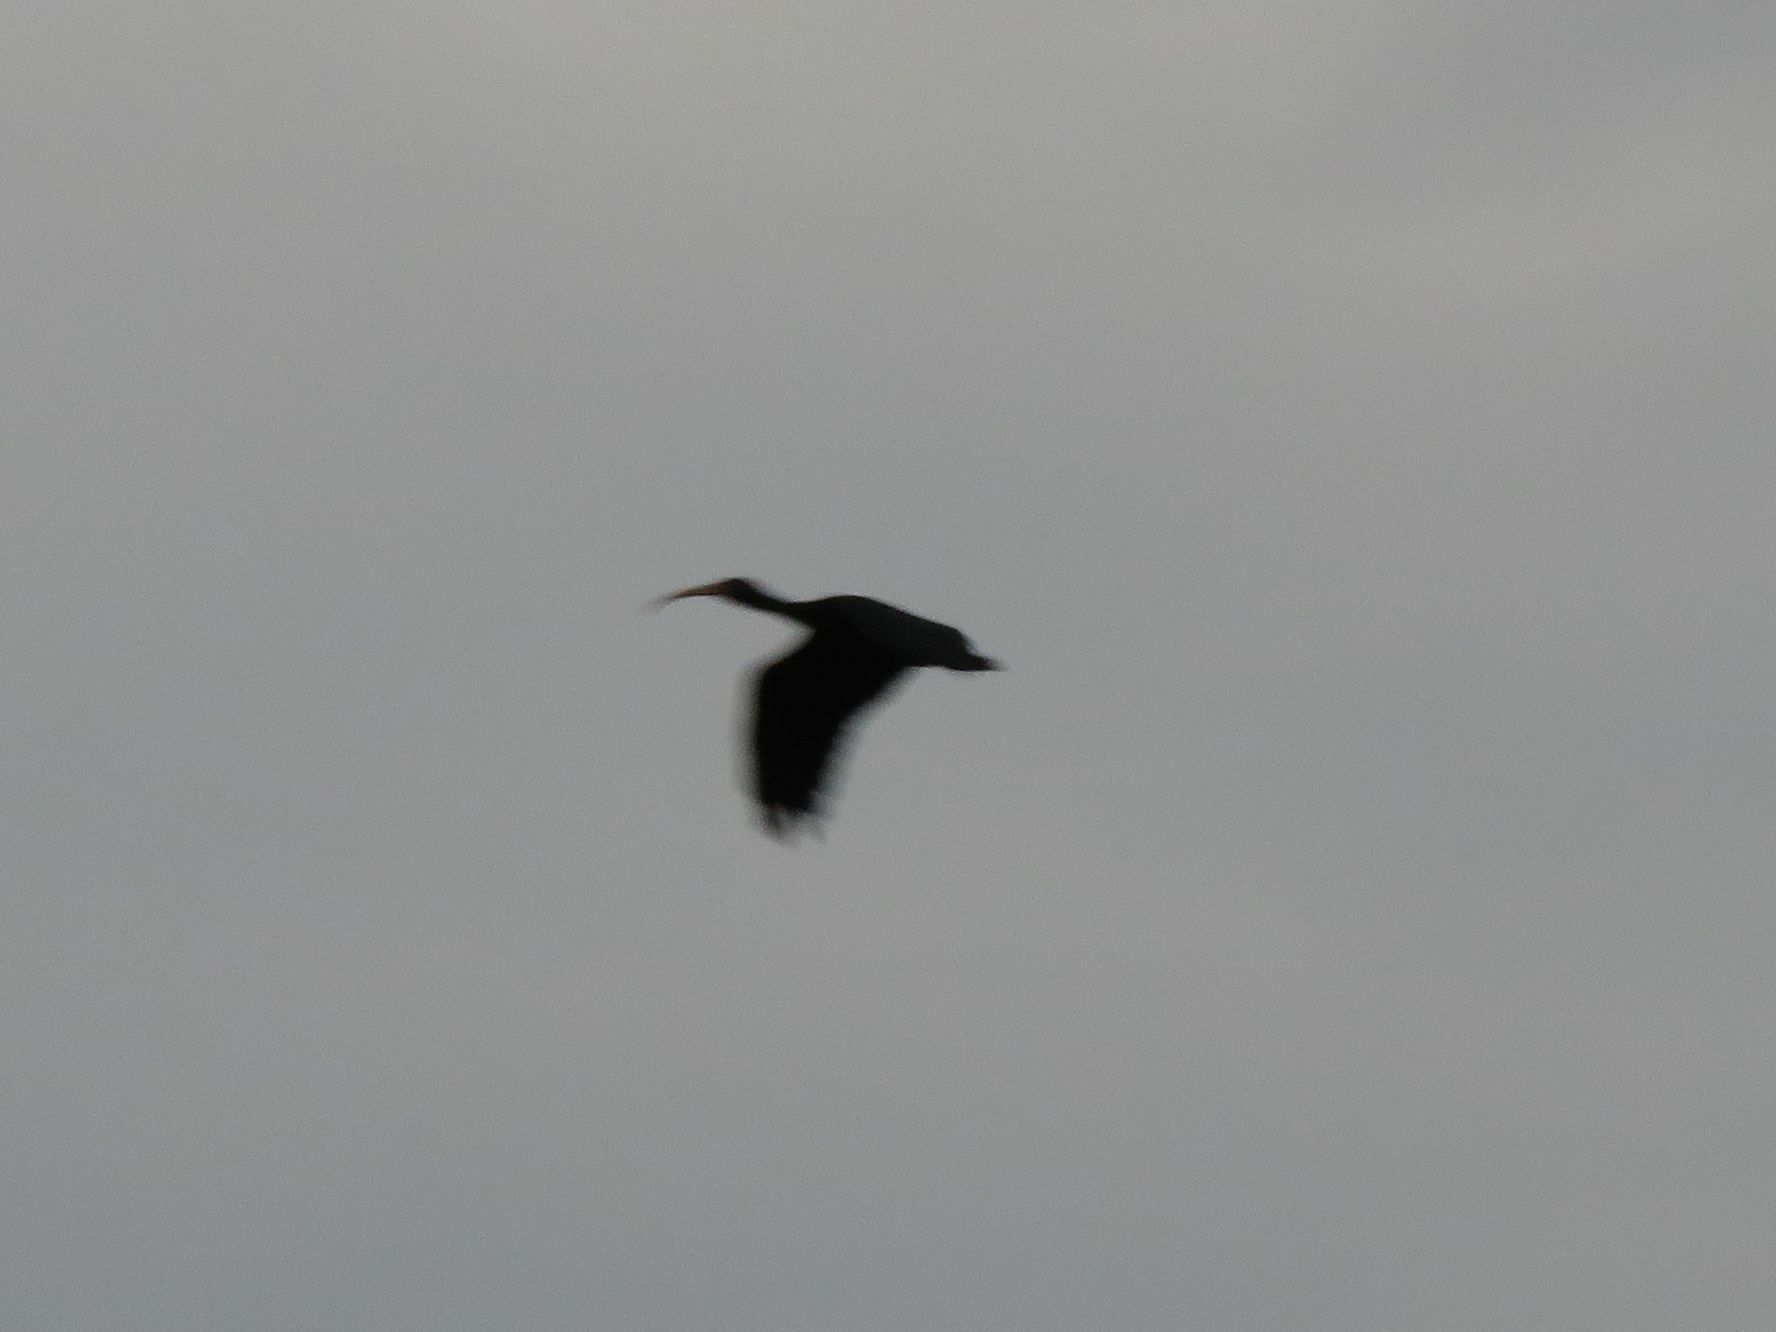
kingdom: Animalia
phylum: Chordata
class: Aves
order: Pelecaniformes
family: Threskiornithidae
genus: Phimosus
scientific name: Phimosus infuscatus
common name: Bare-faced ibis
